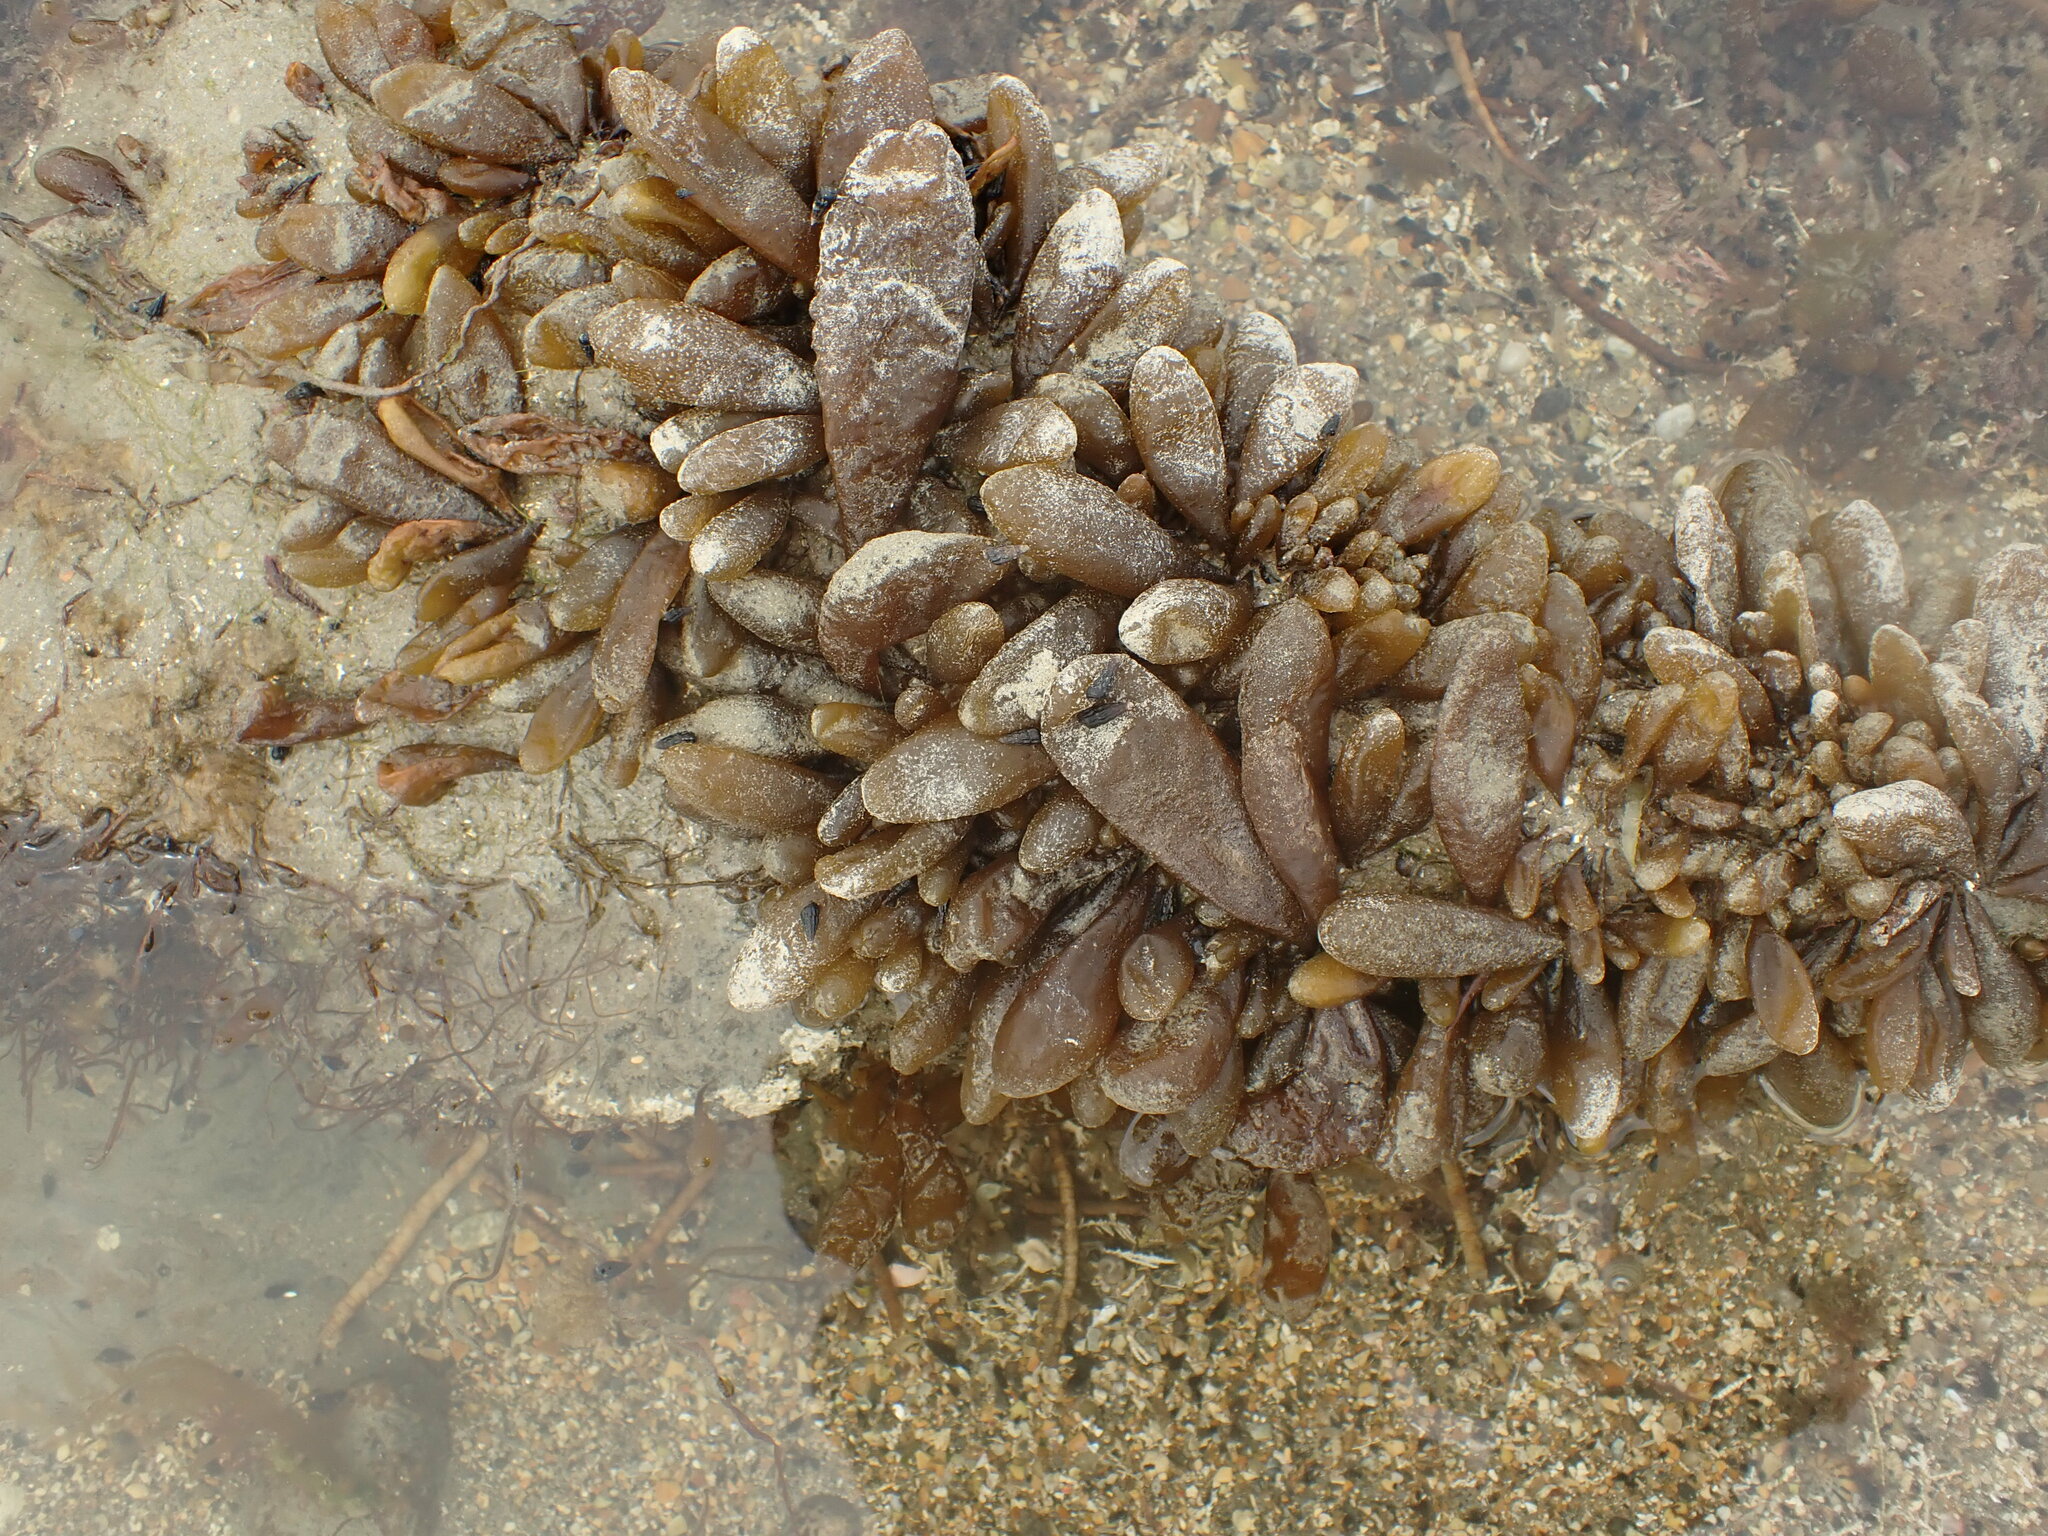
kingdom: Chromista
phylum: Ochrophyta
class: Phaeophyceae
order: Ectocarpales
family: Adenocystaceae
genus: Adenocystis
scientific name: Adenocystis utricularis
